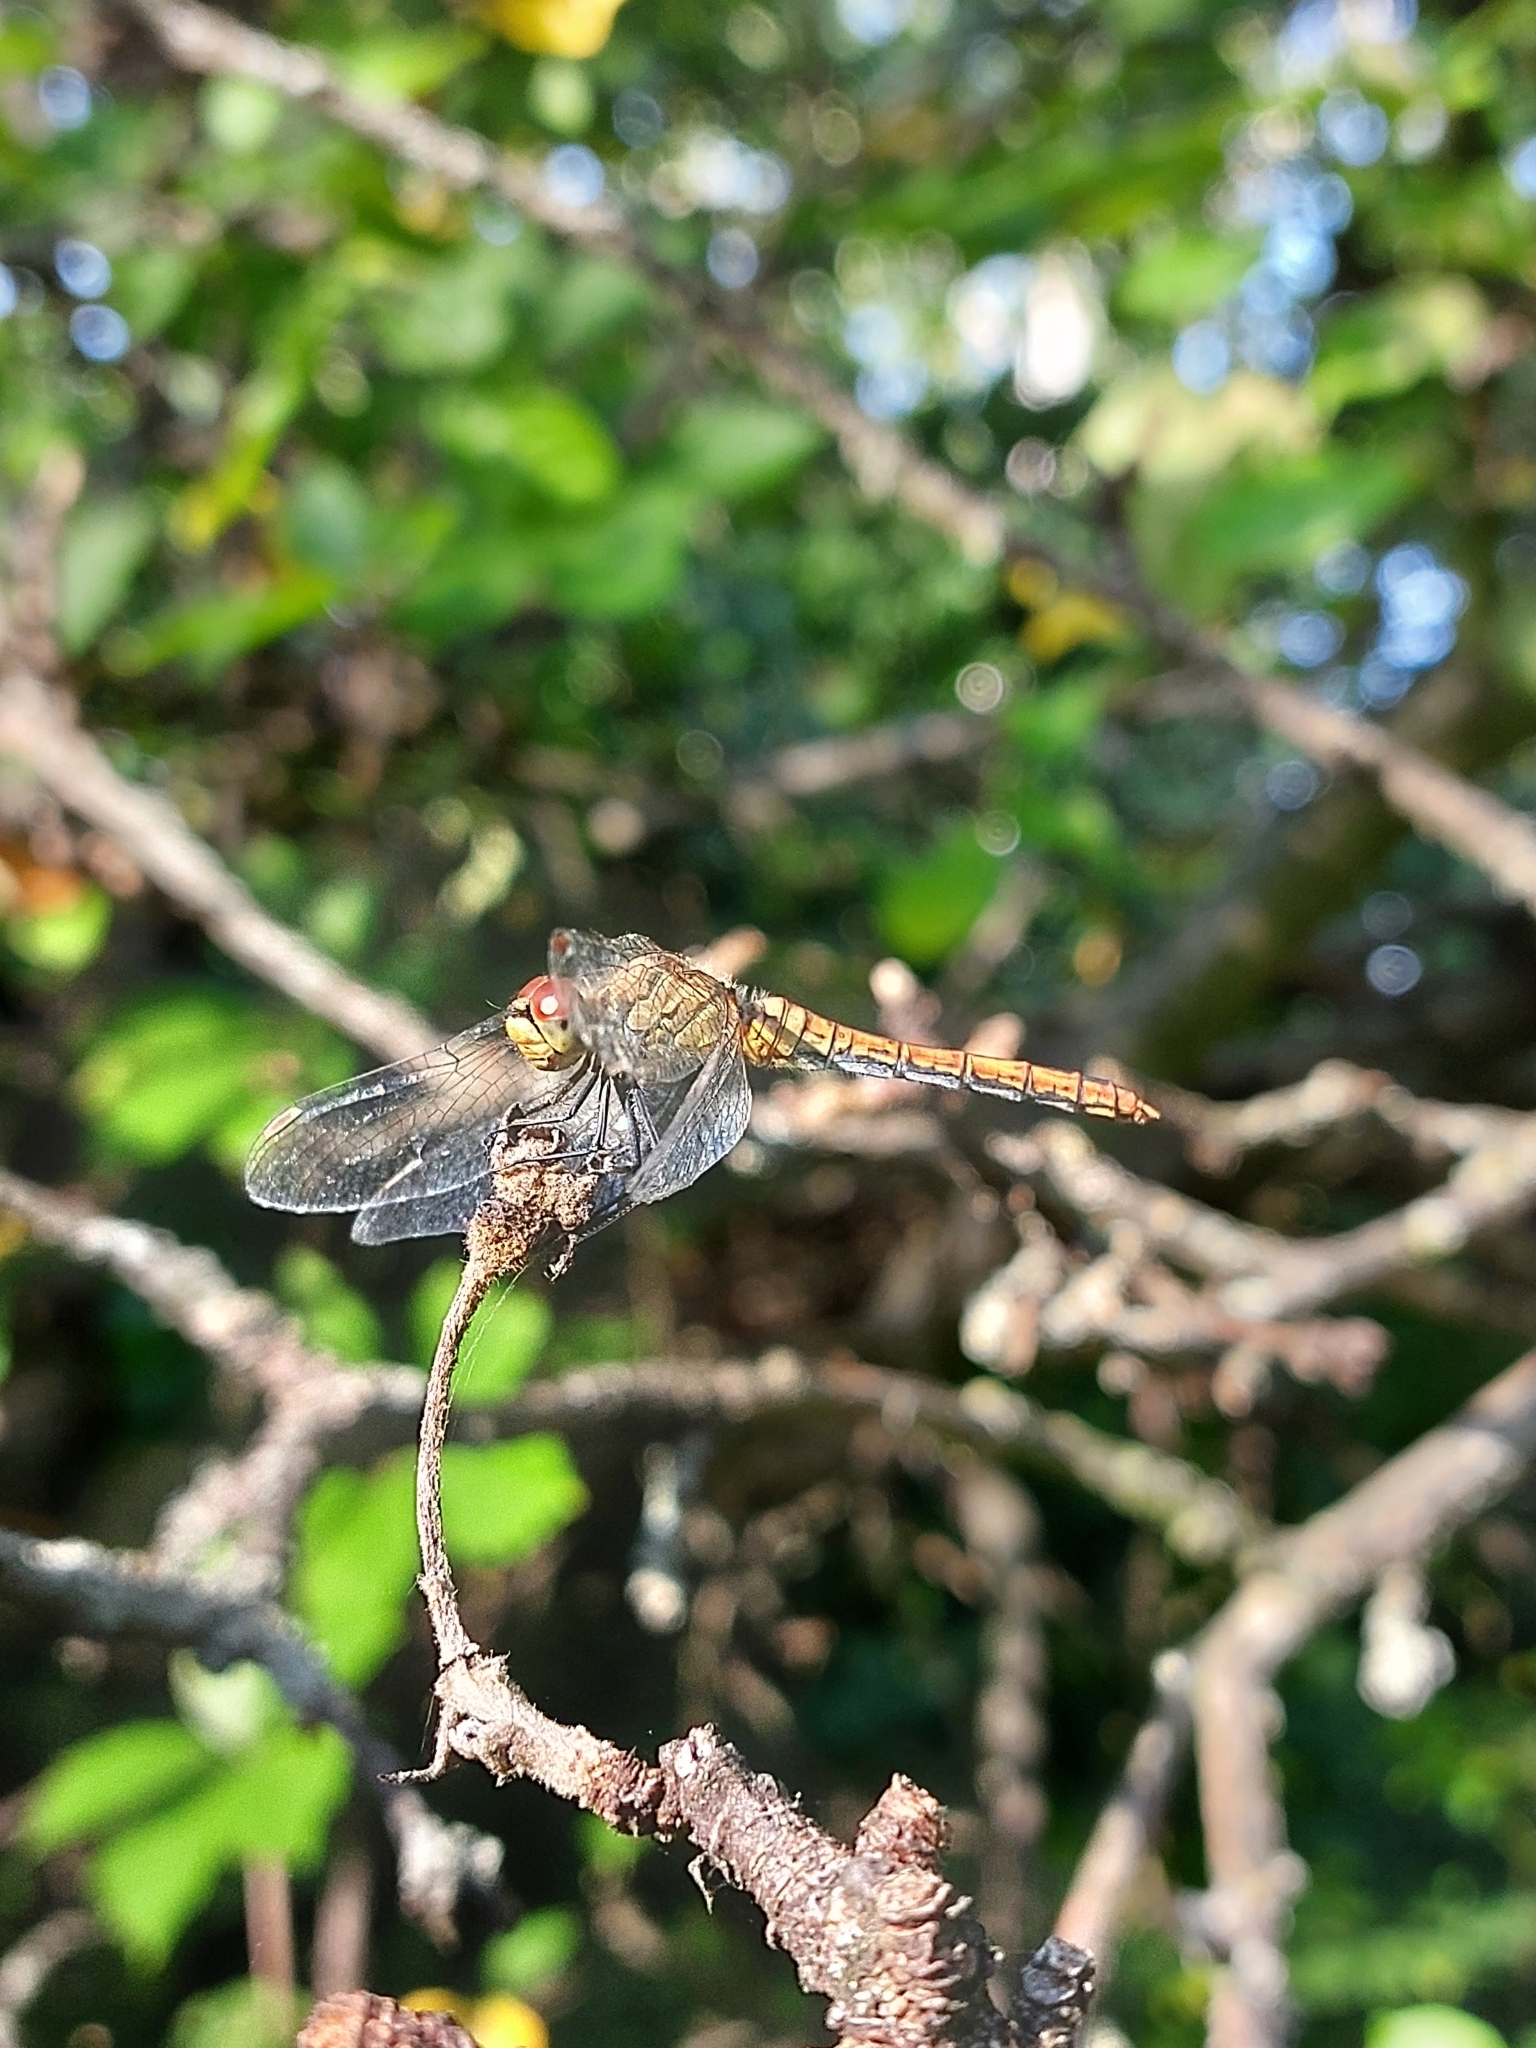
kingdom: Animalia
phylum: Arthropoda
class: Insecta
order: Odonata
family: Libellulidae
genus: Sympetrum
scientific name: Sympetrum sanguineum
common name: Ruddy darter
